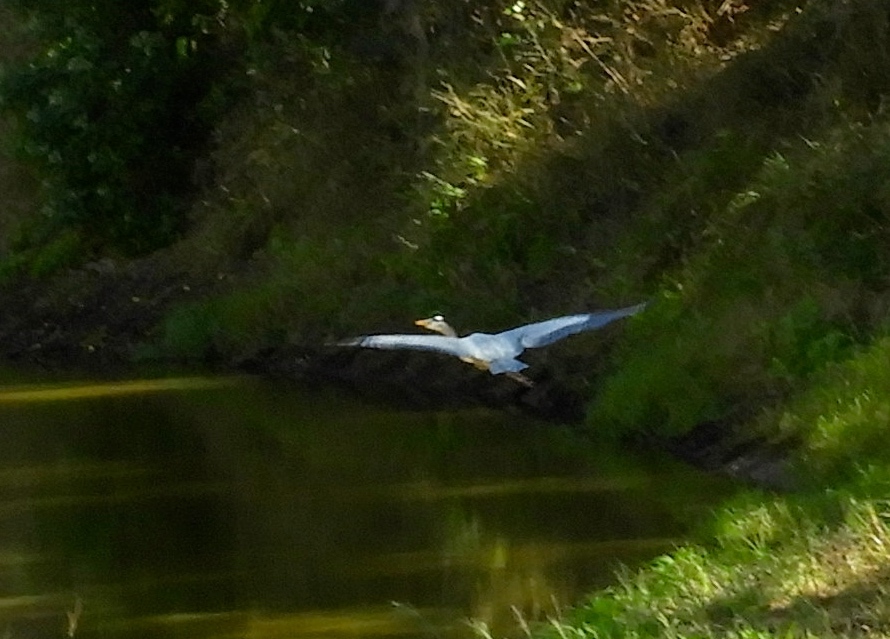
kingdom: Animalia
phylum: Chordata
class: Aves
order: Pelecaniformes
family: Ardeidae
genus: Ardea
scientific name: Ardea herodias
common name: Great blue heron
